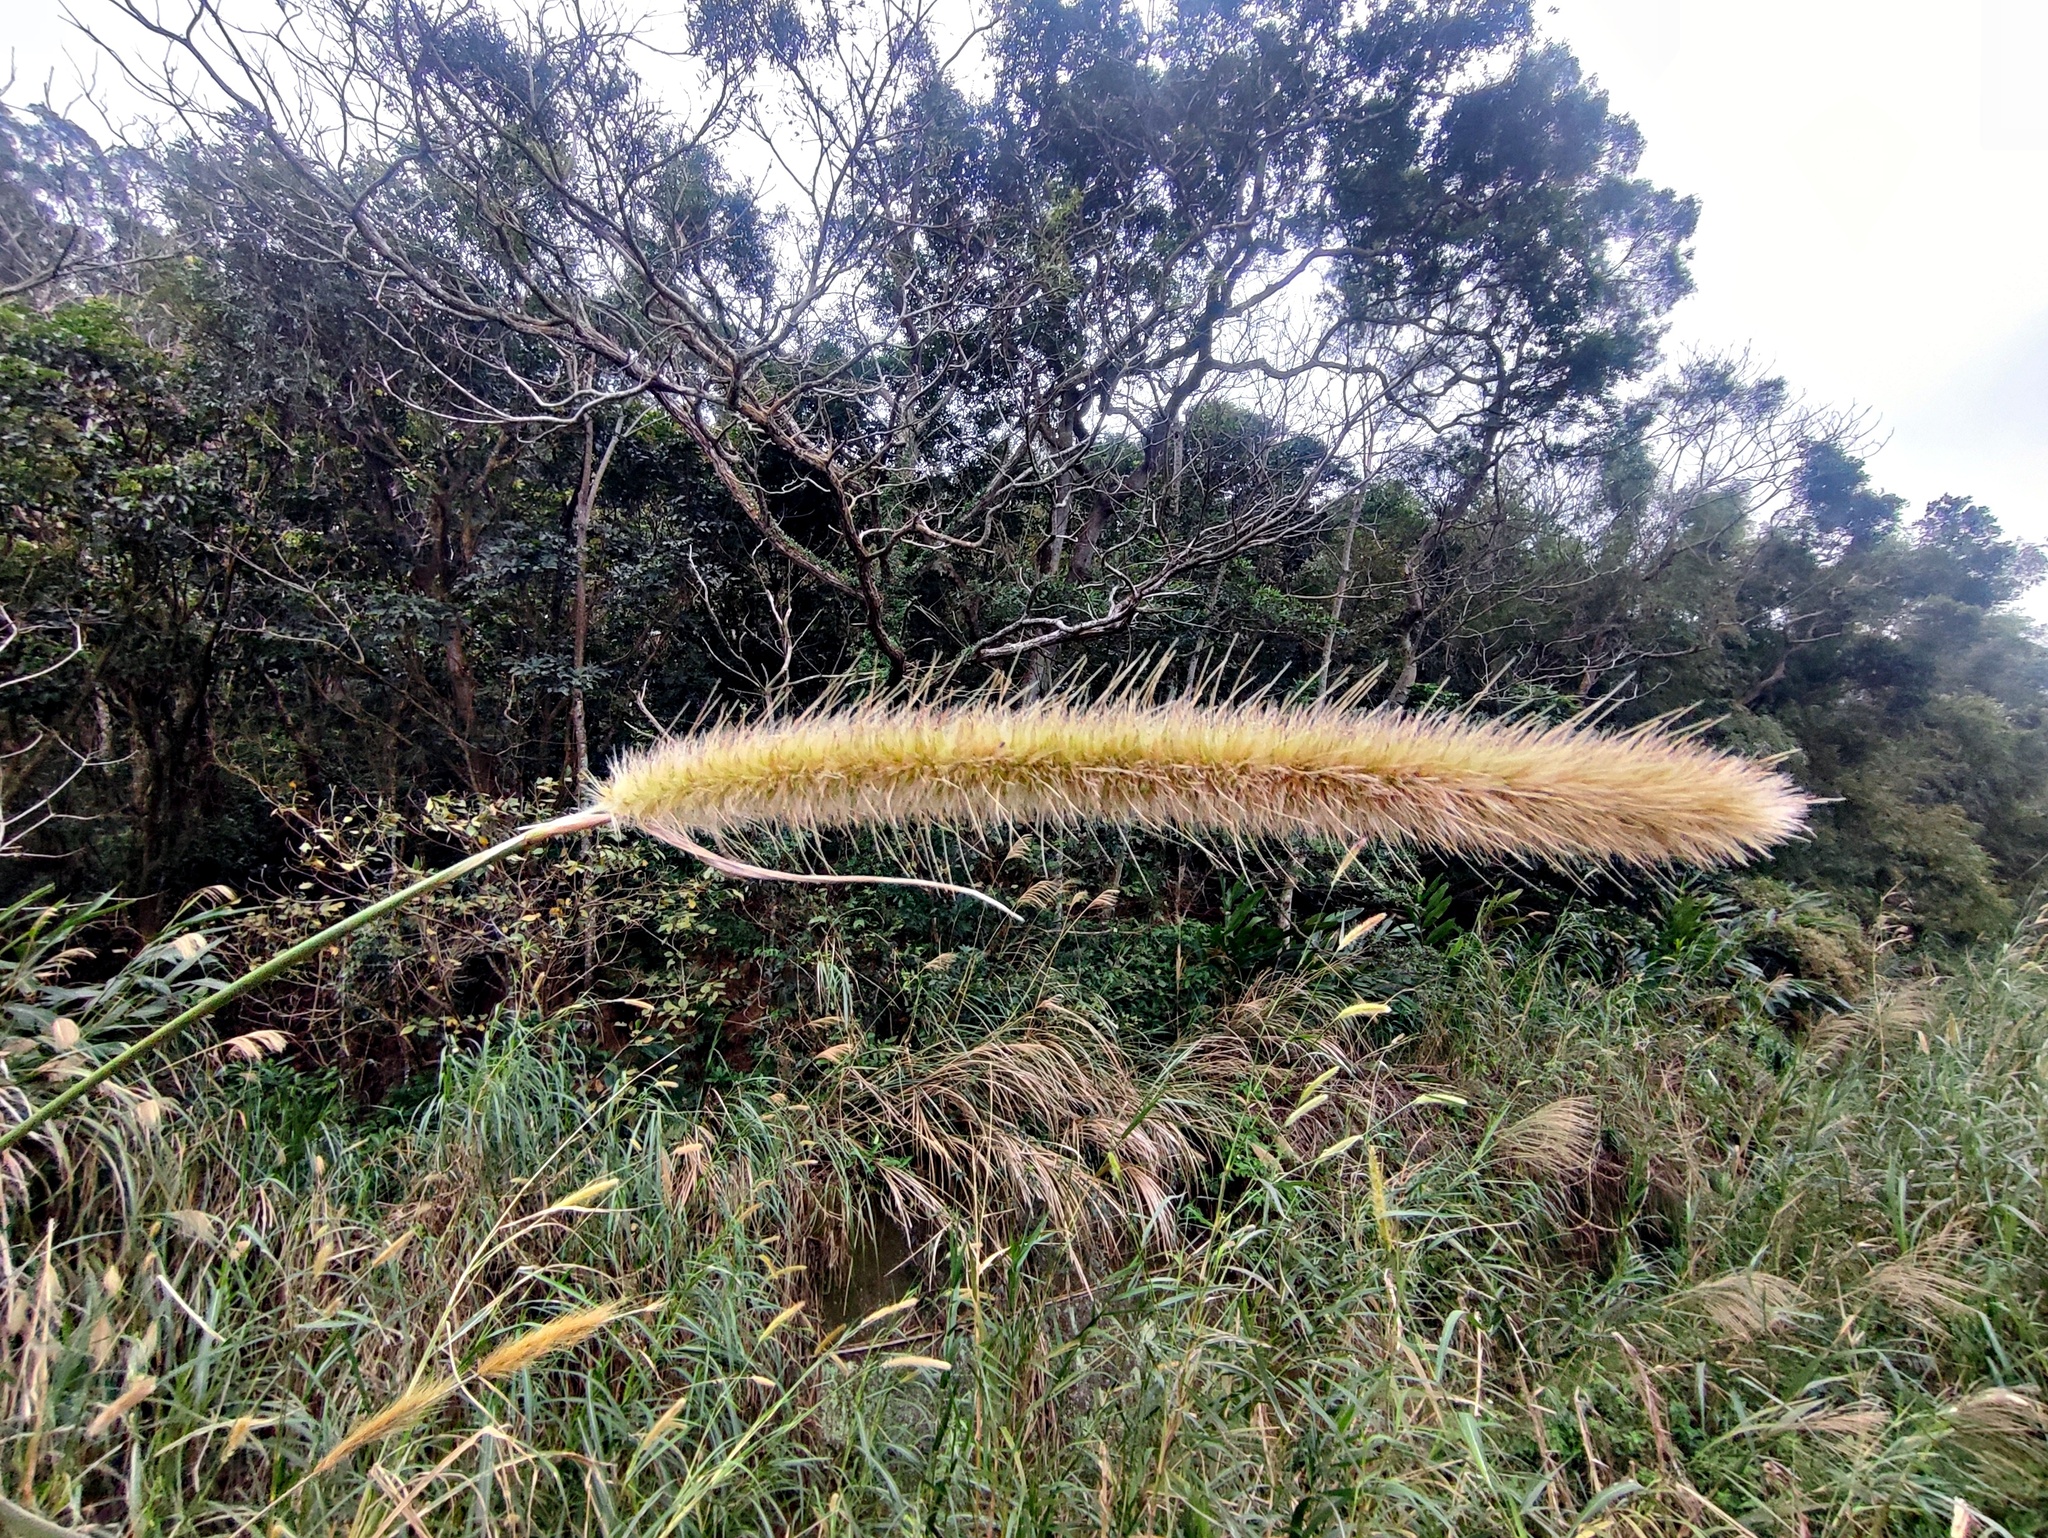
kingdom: Plantae
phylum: Tracheophyta
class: Liliopsida
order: Poales
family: Poaceae
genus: Cenchrus
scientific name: Cenchrus purpureus
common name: Elephant grass
